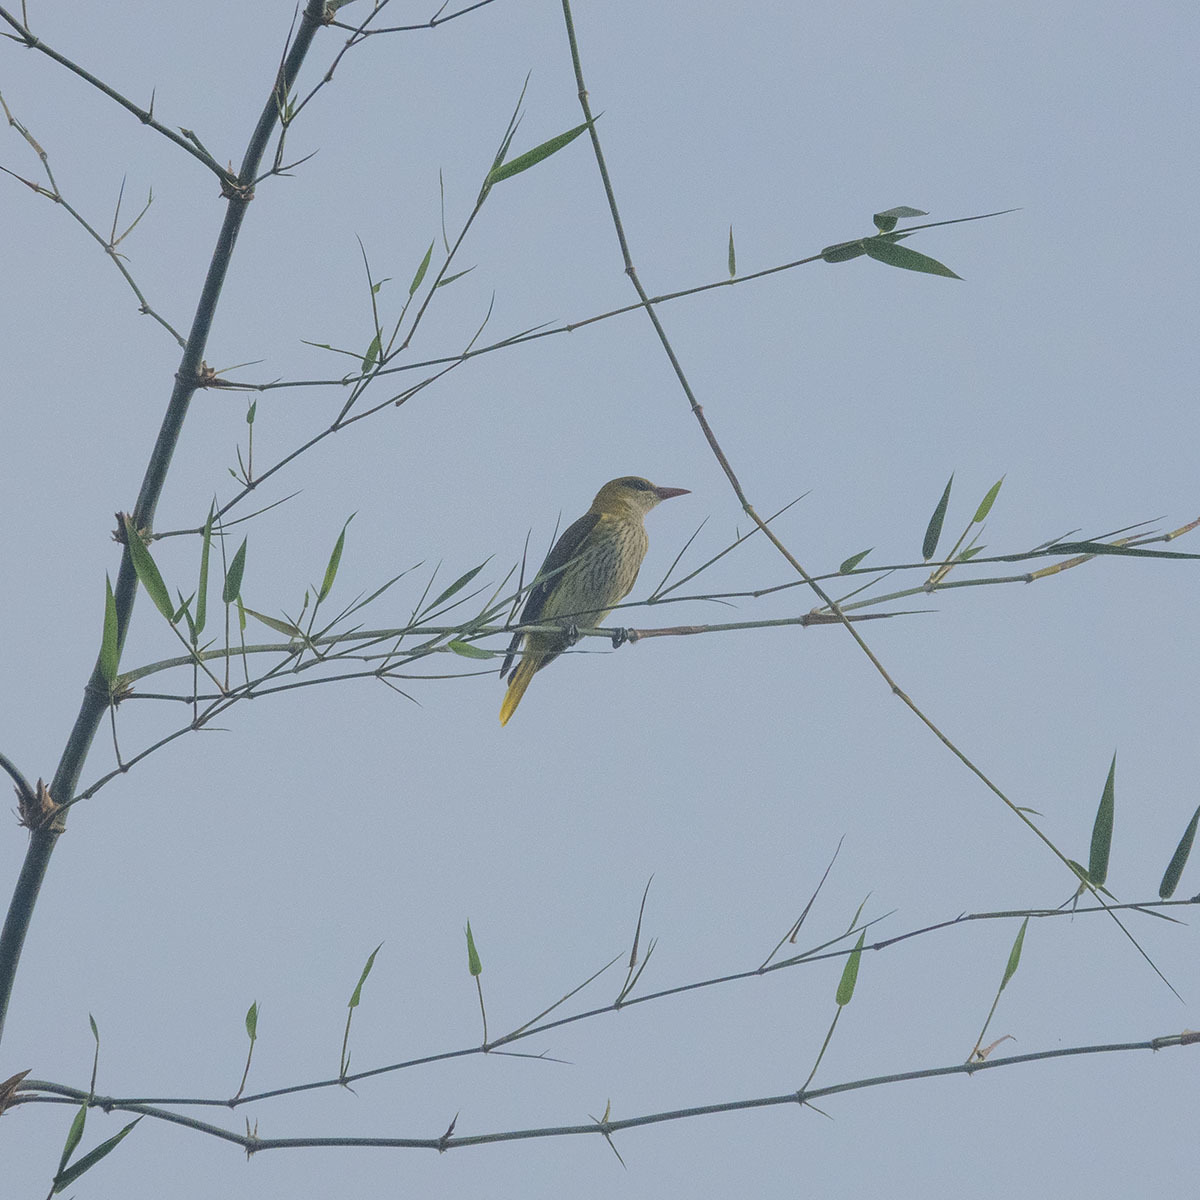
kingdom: Animalia
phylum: Chordata
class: Aves
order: Passeriformes
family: Oriolidae
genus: Oriolus
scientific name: Oriolus kundoo
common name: Indian golden oriole
